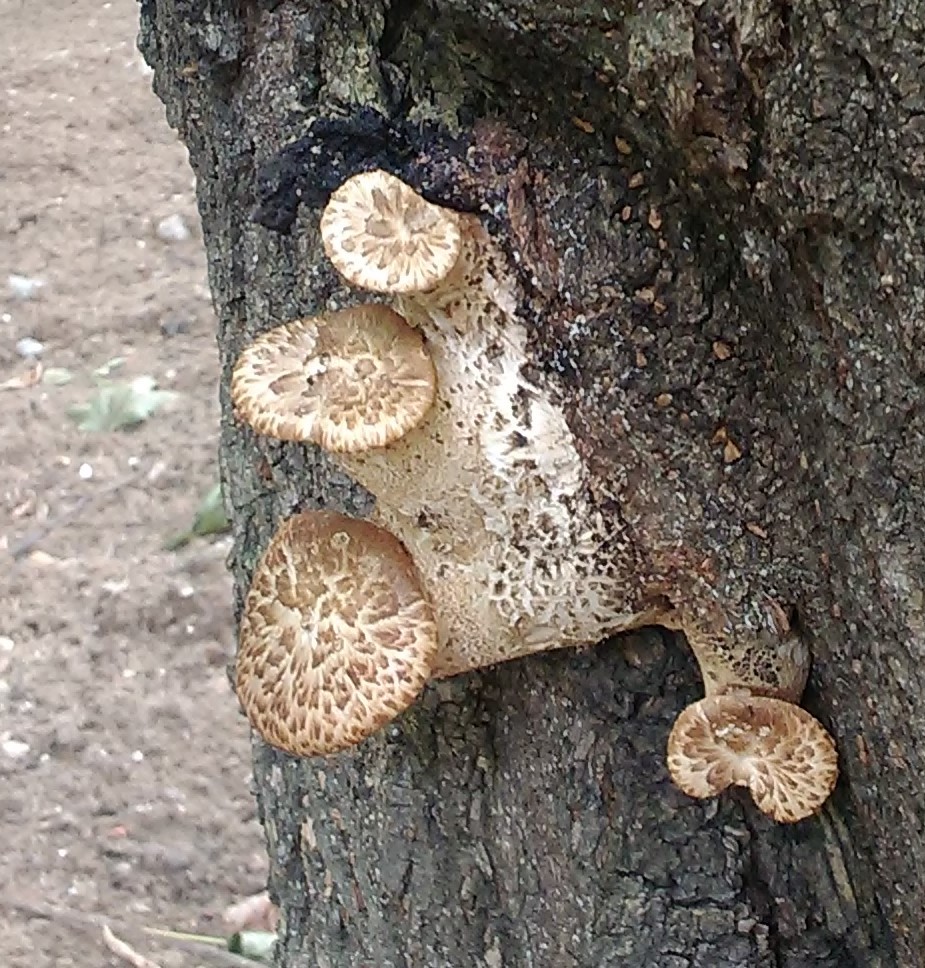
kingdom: Fungi
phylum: Basidiomycota
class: Agaricomycetes
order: Polyporales
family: Polyporaceae
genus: Cerioporus
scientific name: Cerioporus squamosus
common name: Dryad's saddle
